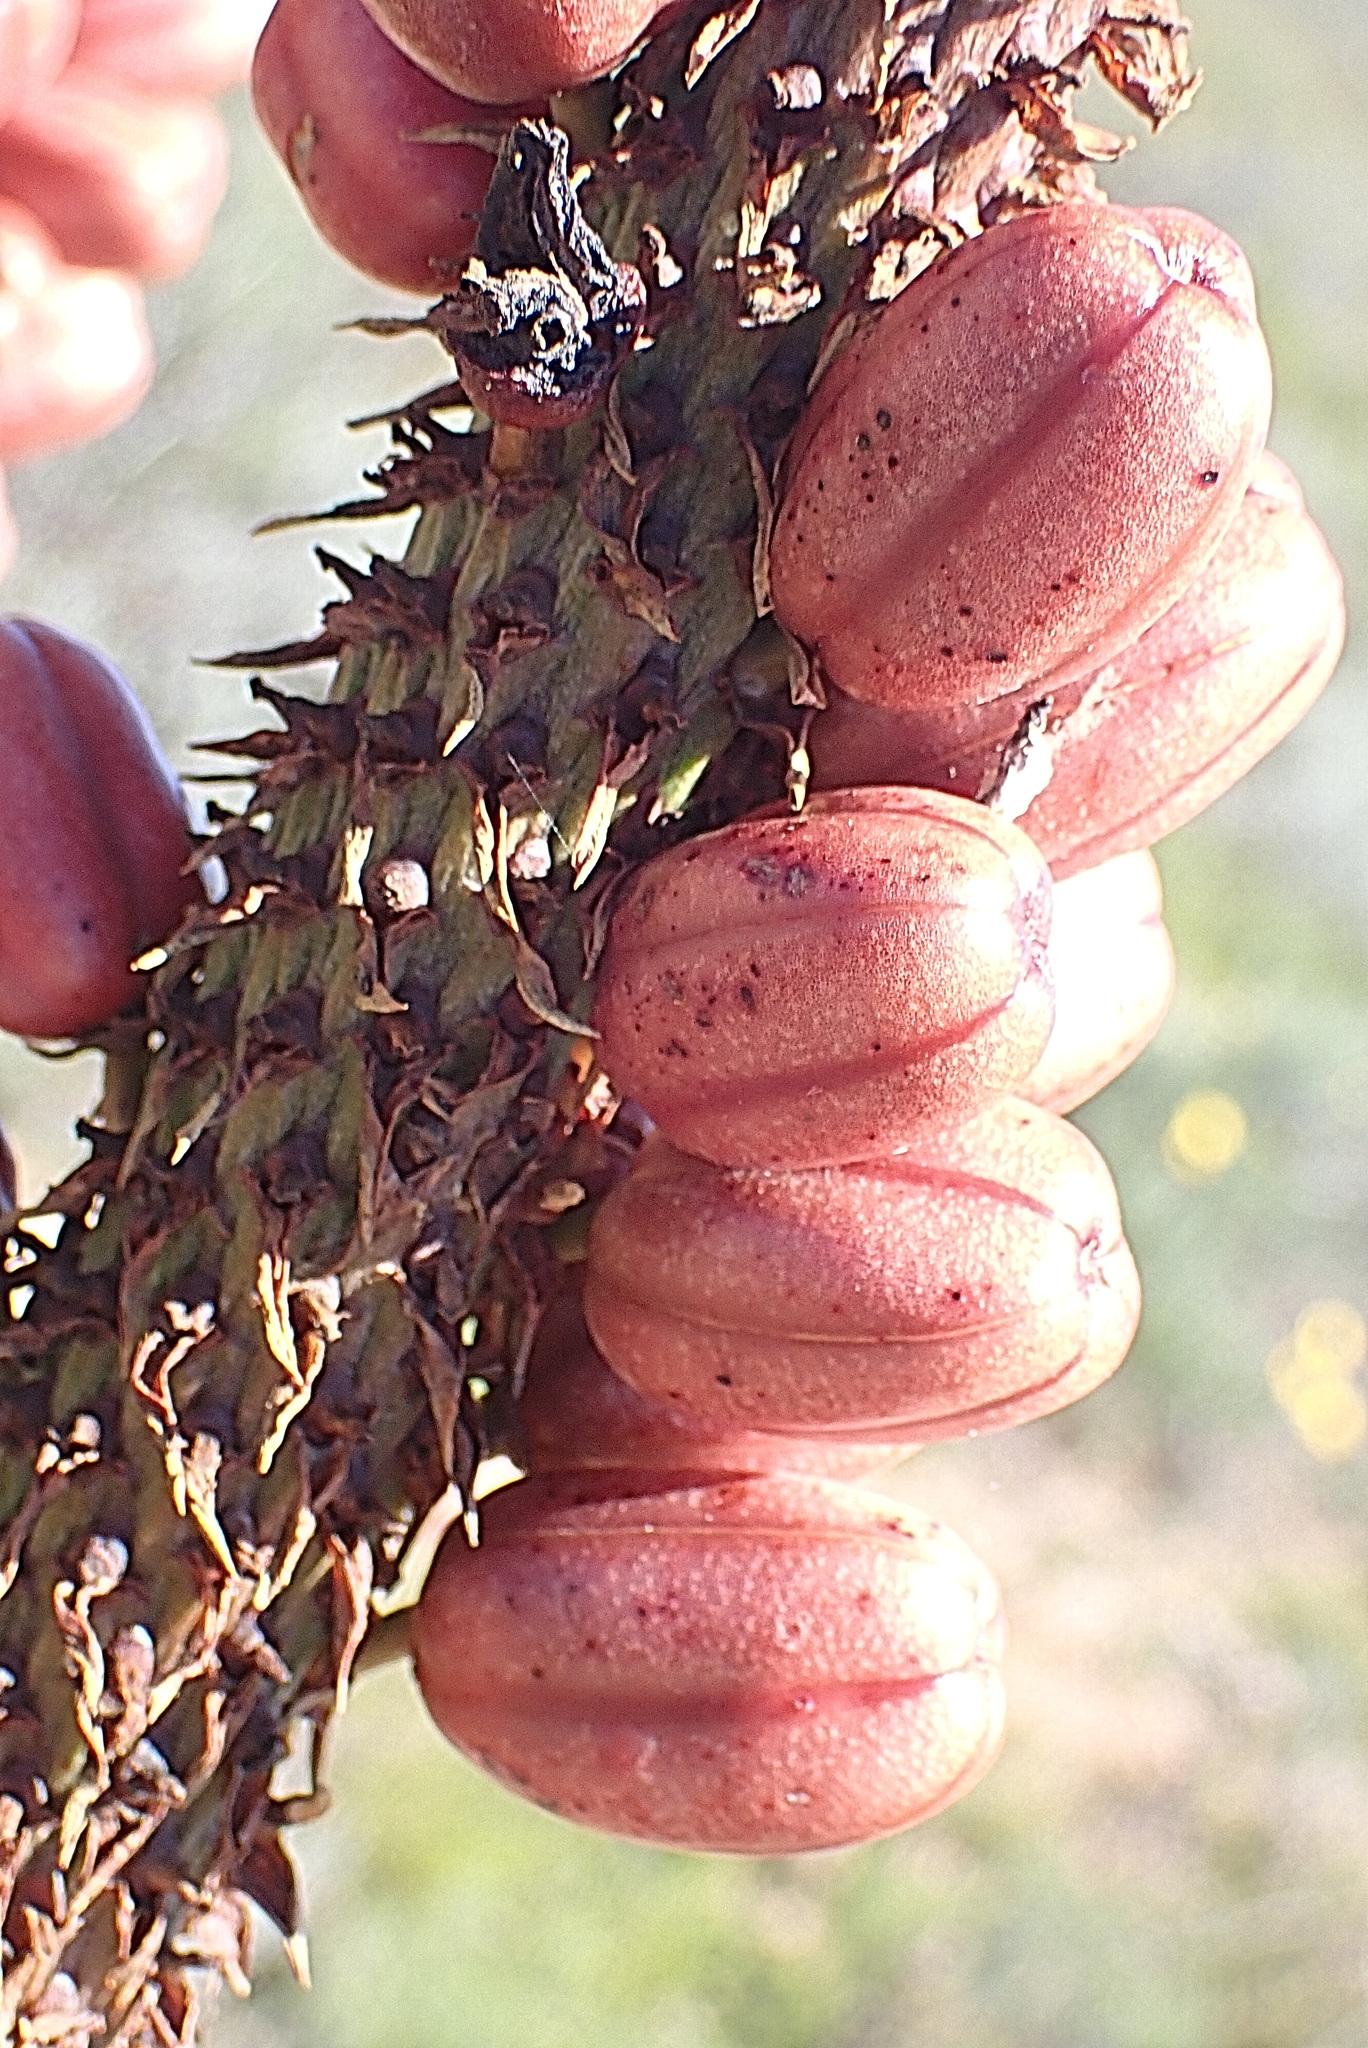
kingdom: Plantae
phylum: Tracheophyta
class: Liliopsida
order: Asparagales
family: Asphodelaceae
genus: Aloe
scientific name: Aloe ferox
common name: Bitter aloe
